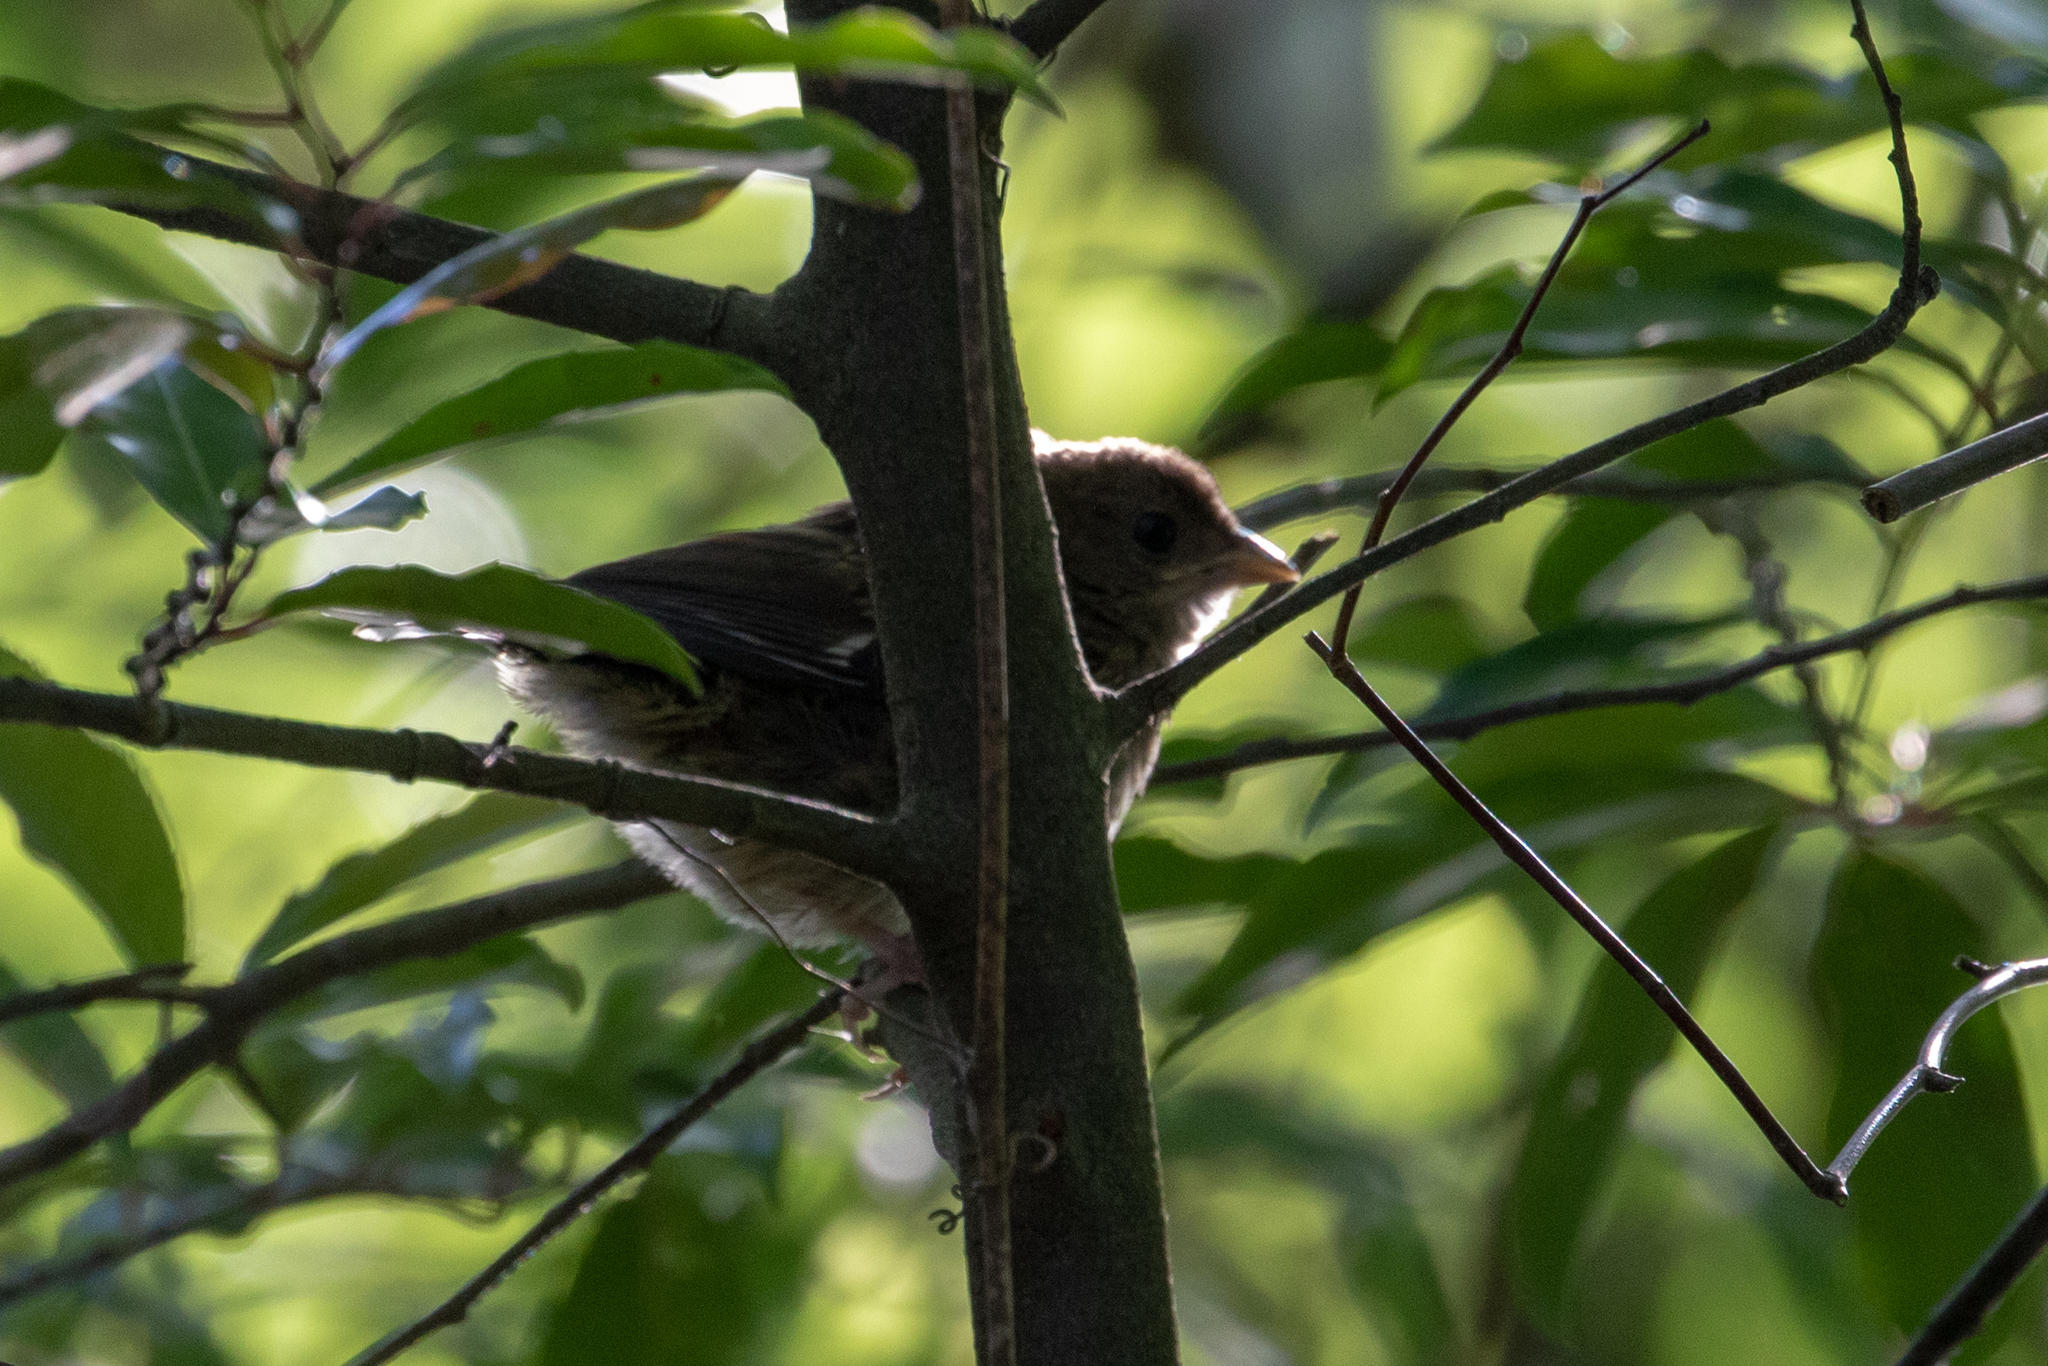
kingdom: Animalia
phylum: Chordata
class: Aves
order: Passeriformes
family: Passerellidae
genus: Pipilo
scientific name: Pipilo erythrophthalmus
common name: Eastern towhee
